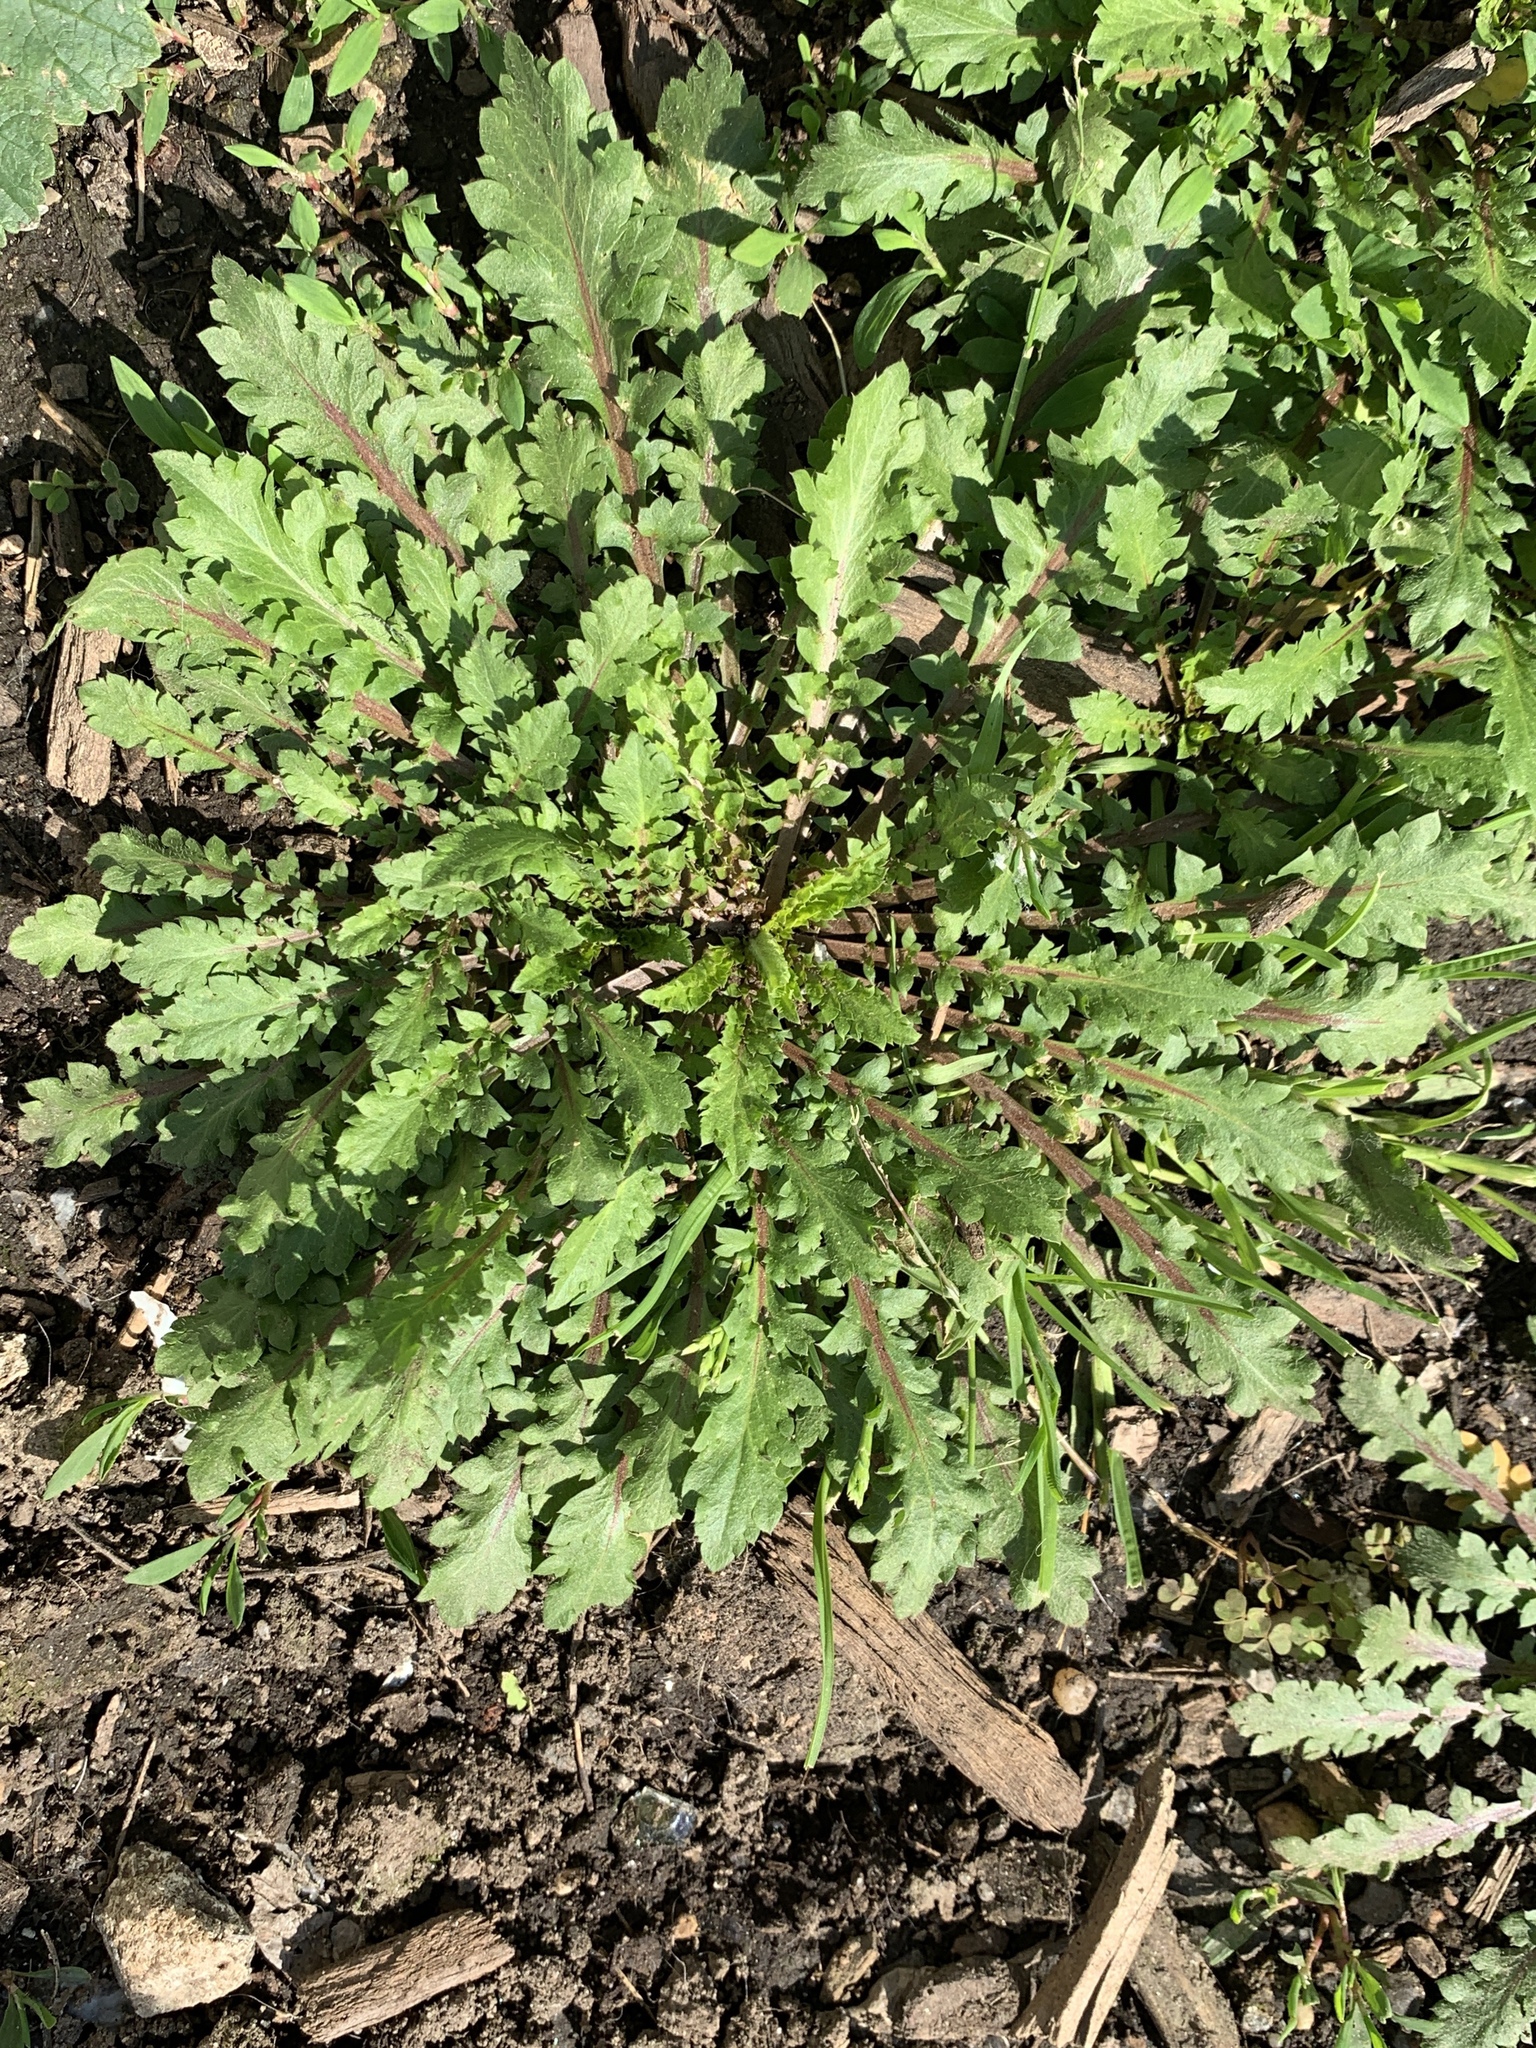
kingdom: Plantae
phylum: Tracheophyta
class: Magnoliopsida
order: Brassicales
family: Brassicaceae
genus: Lepidium
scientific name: Lepidium virginicum
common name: Least pepperwort
